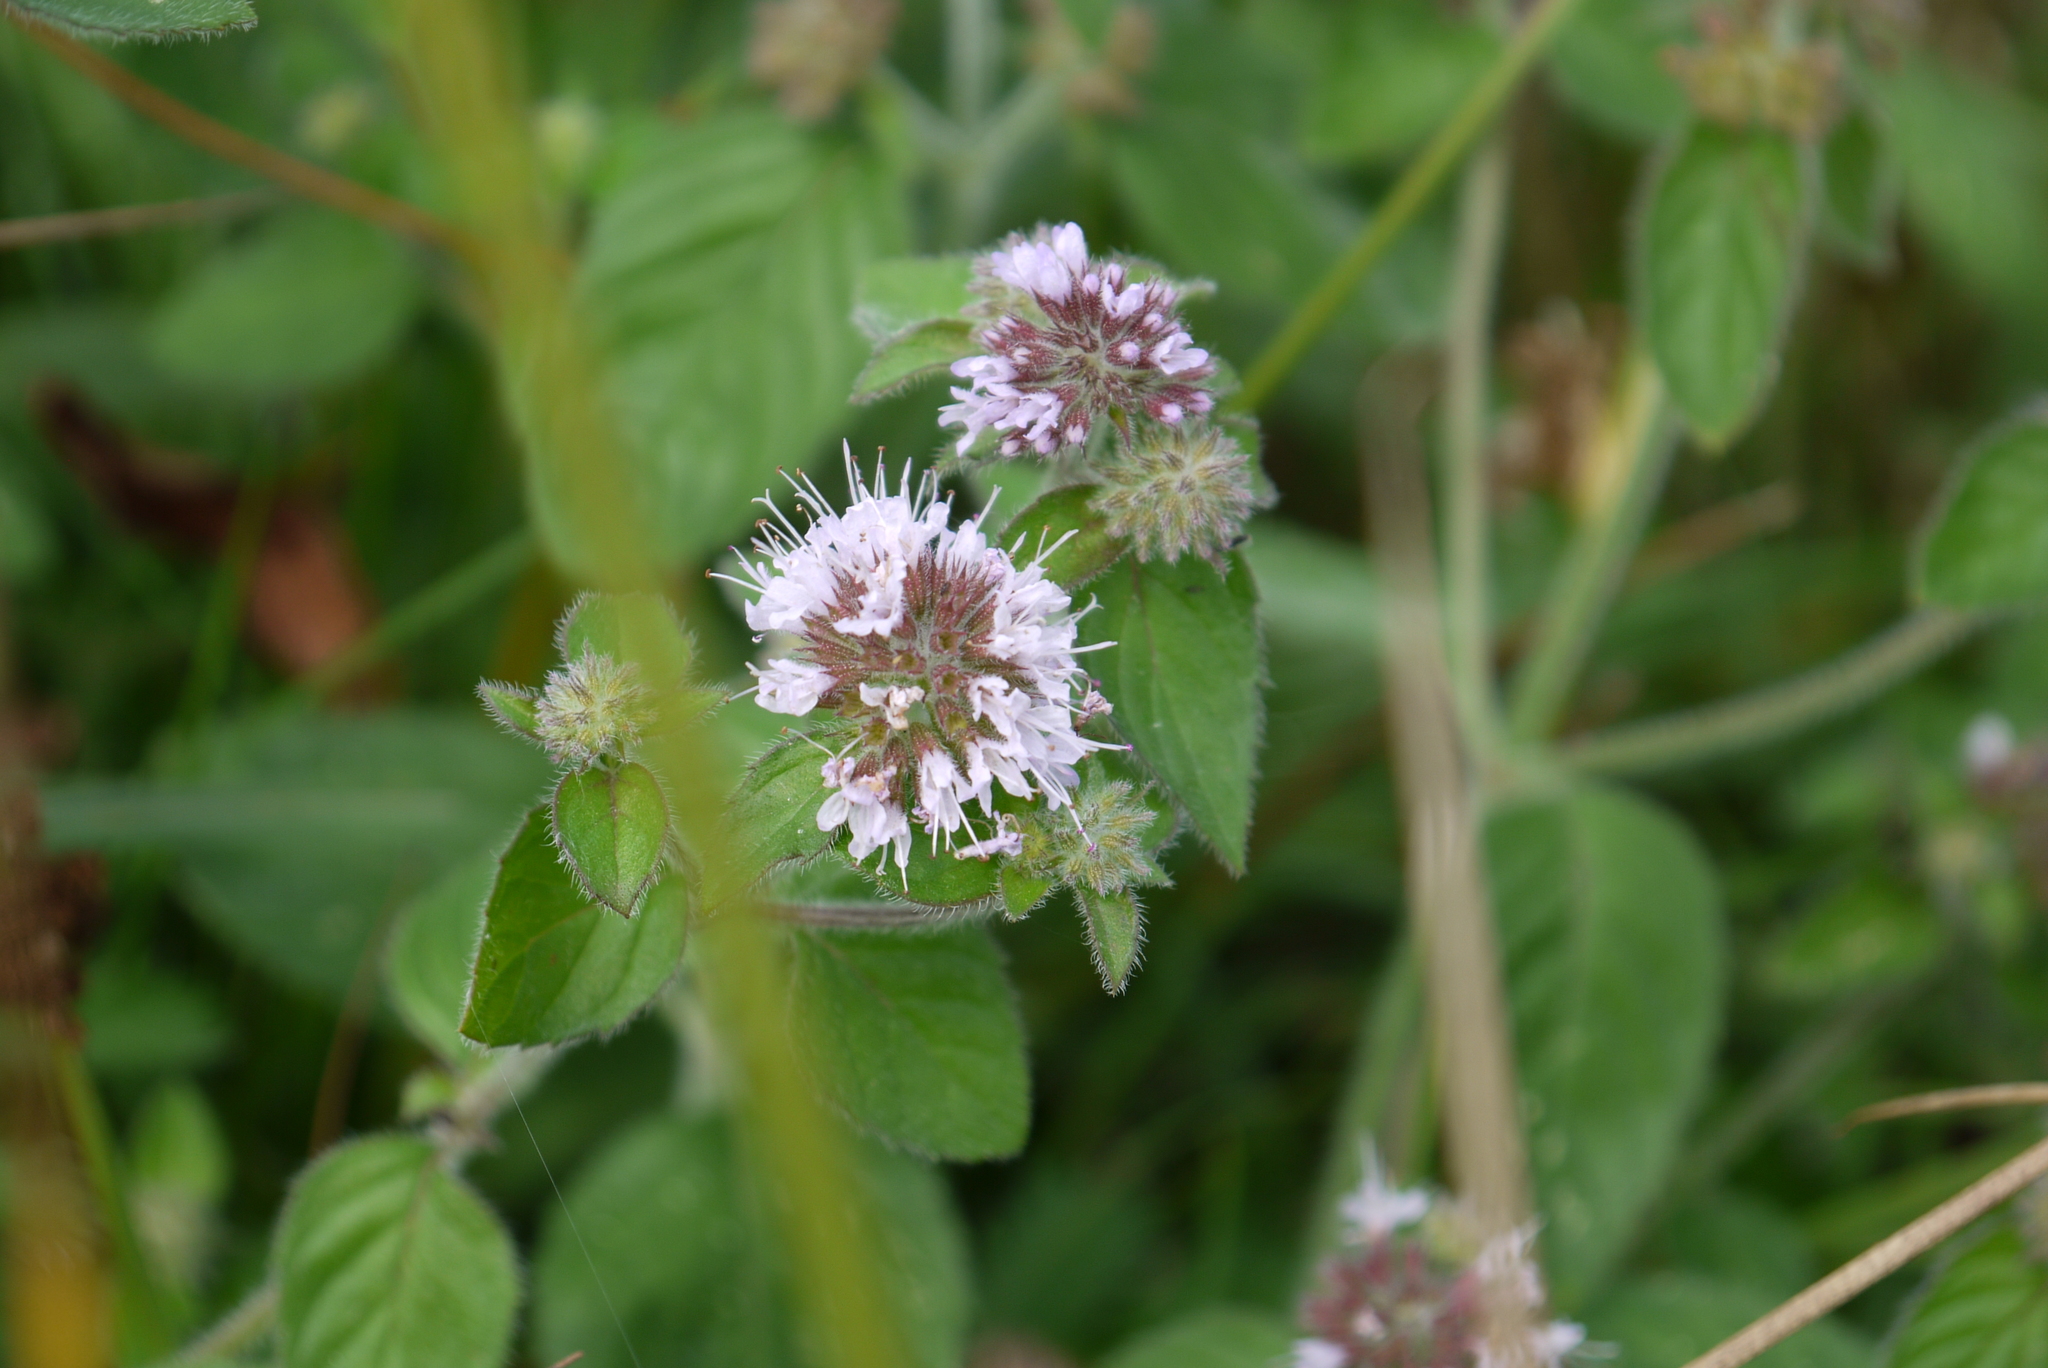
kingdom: Plantae
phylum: Tracheophyta
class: Magnoliopsida
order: Lamiales
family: Lamiaceae
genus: Mentha
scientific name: Mentha aquatica
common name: Water mint
